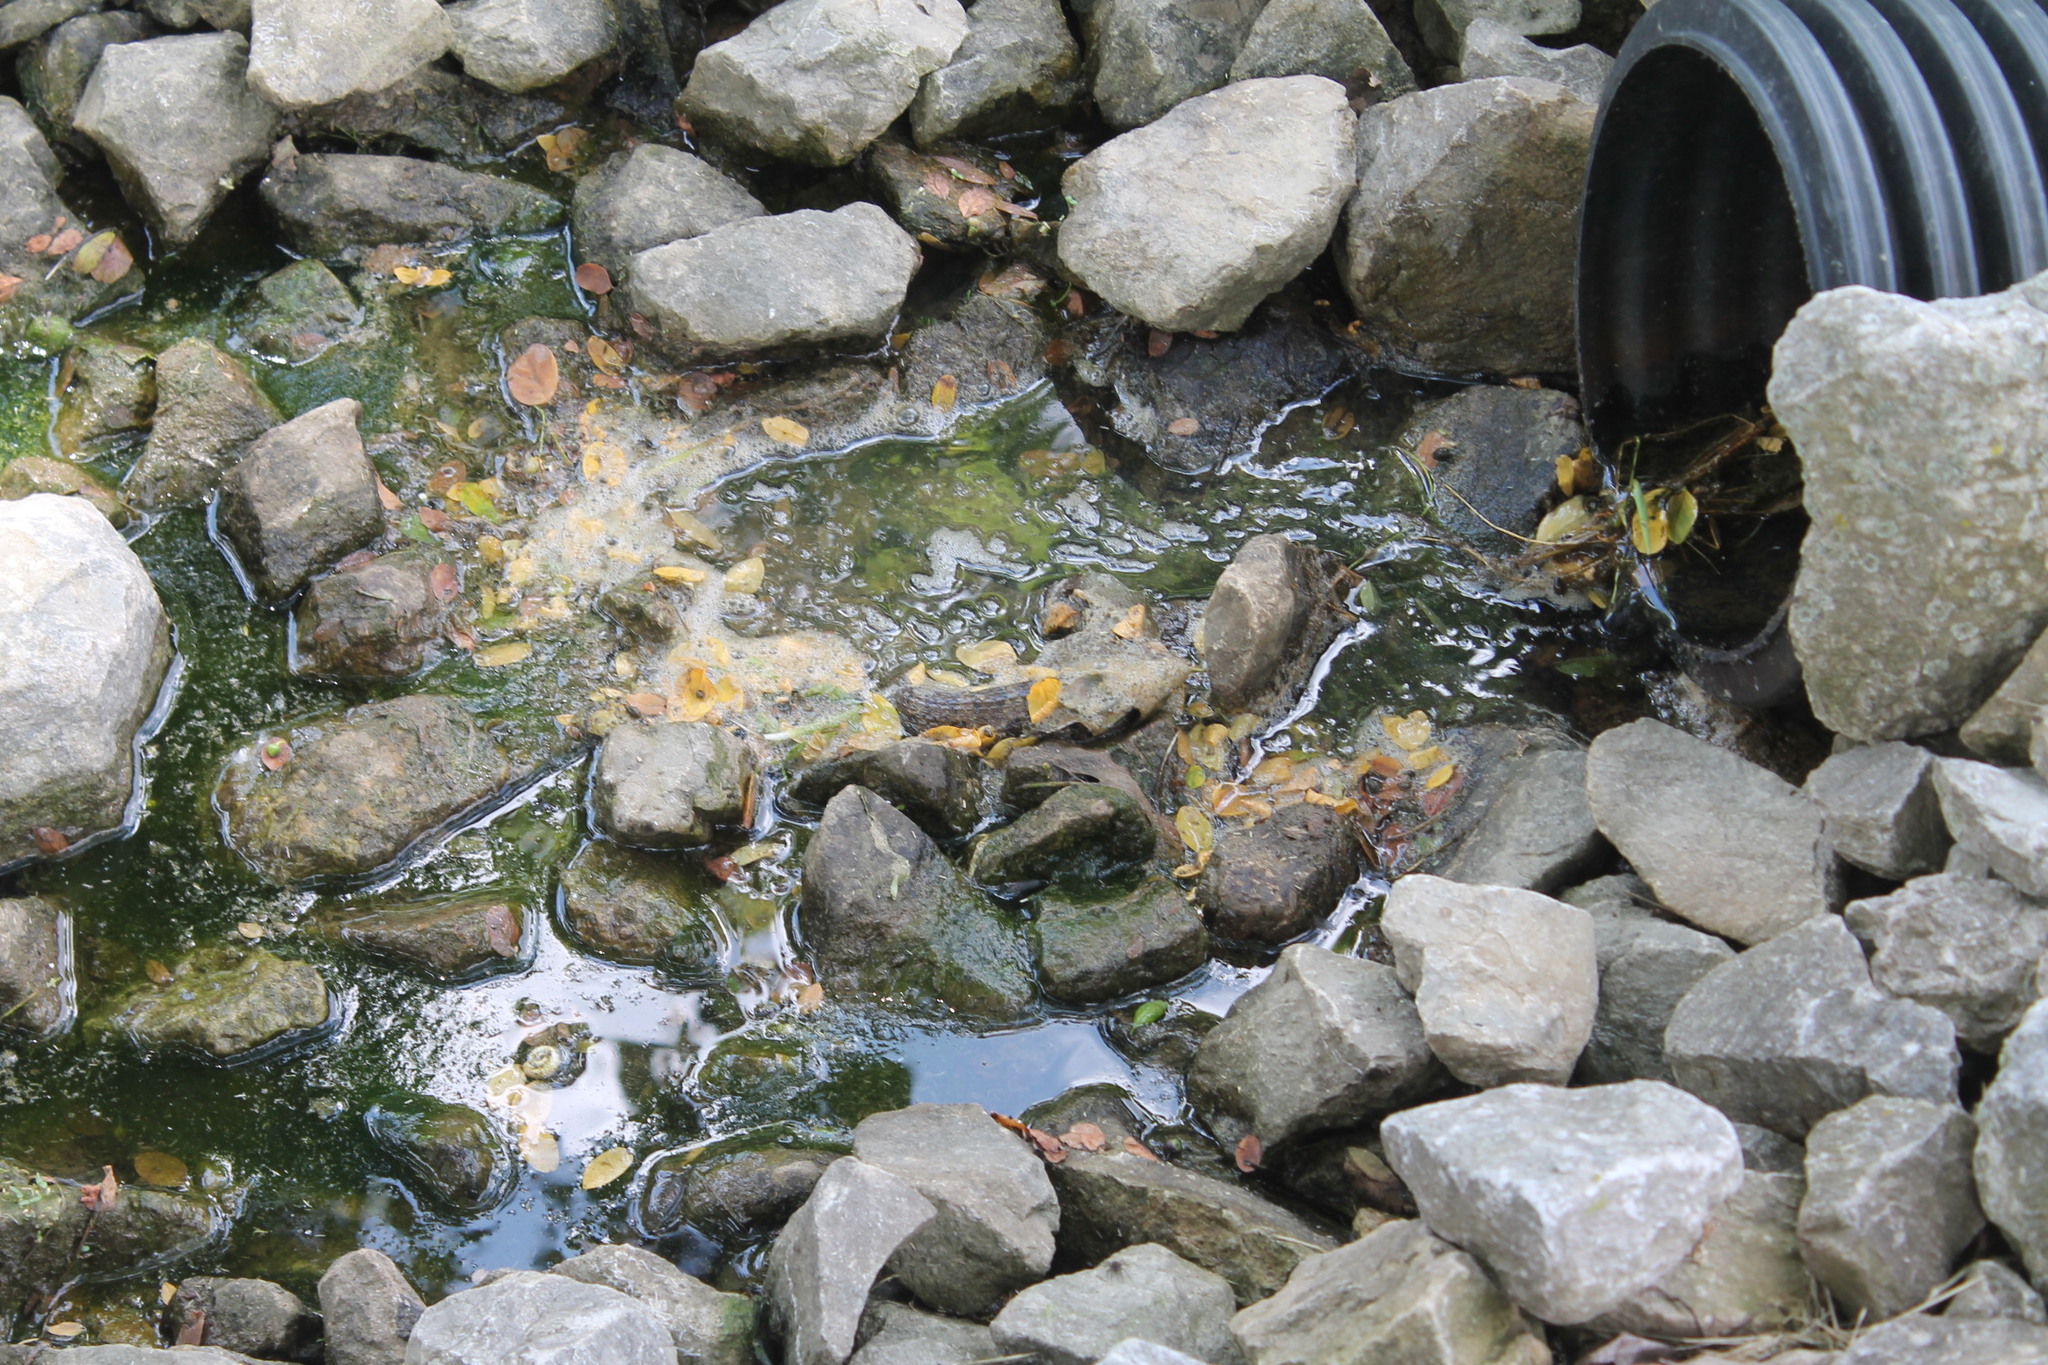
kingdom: Animalia
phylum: Chordata
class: Squamata
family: Colubridae
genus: Nerodia
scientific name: Nerodia sipedon
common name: Northern water snake
